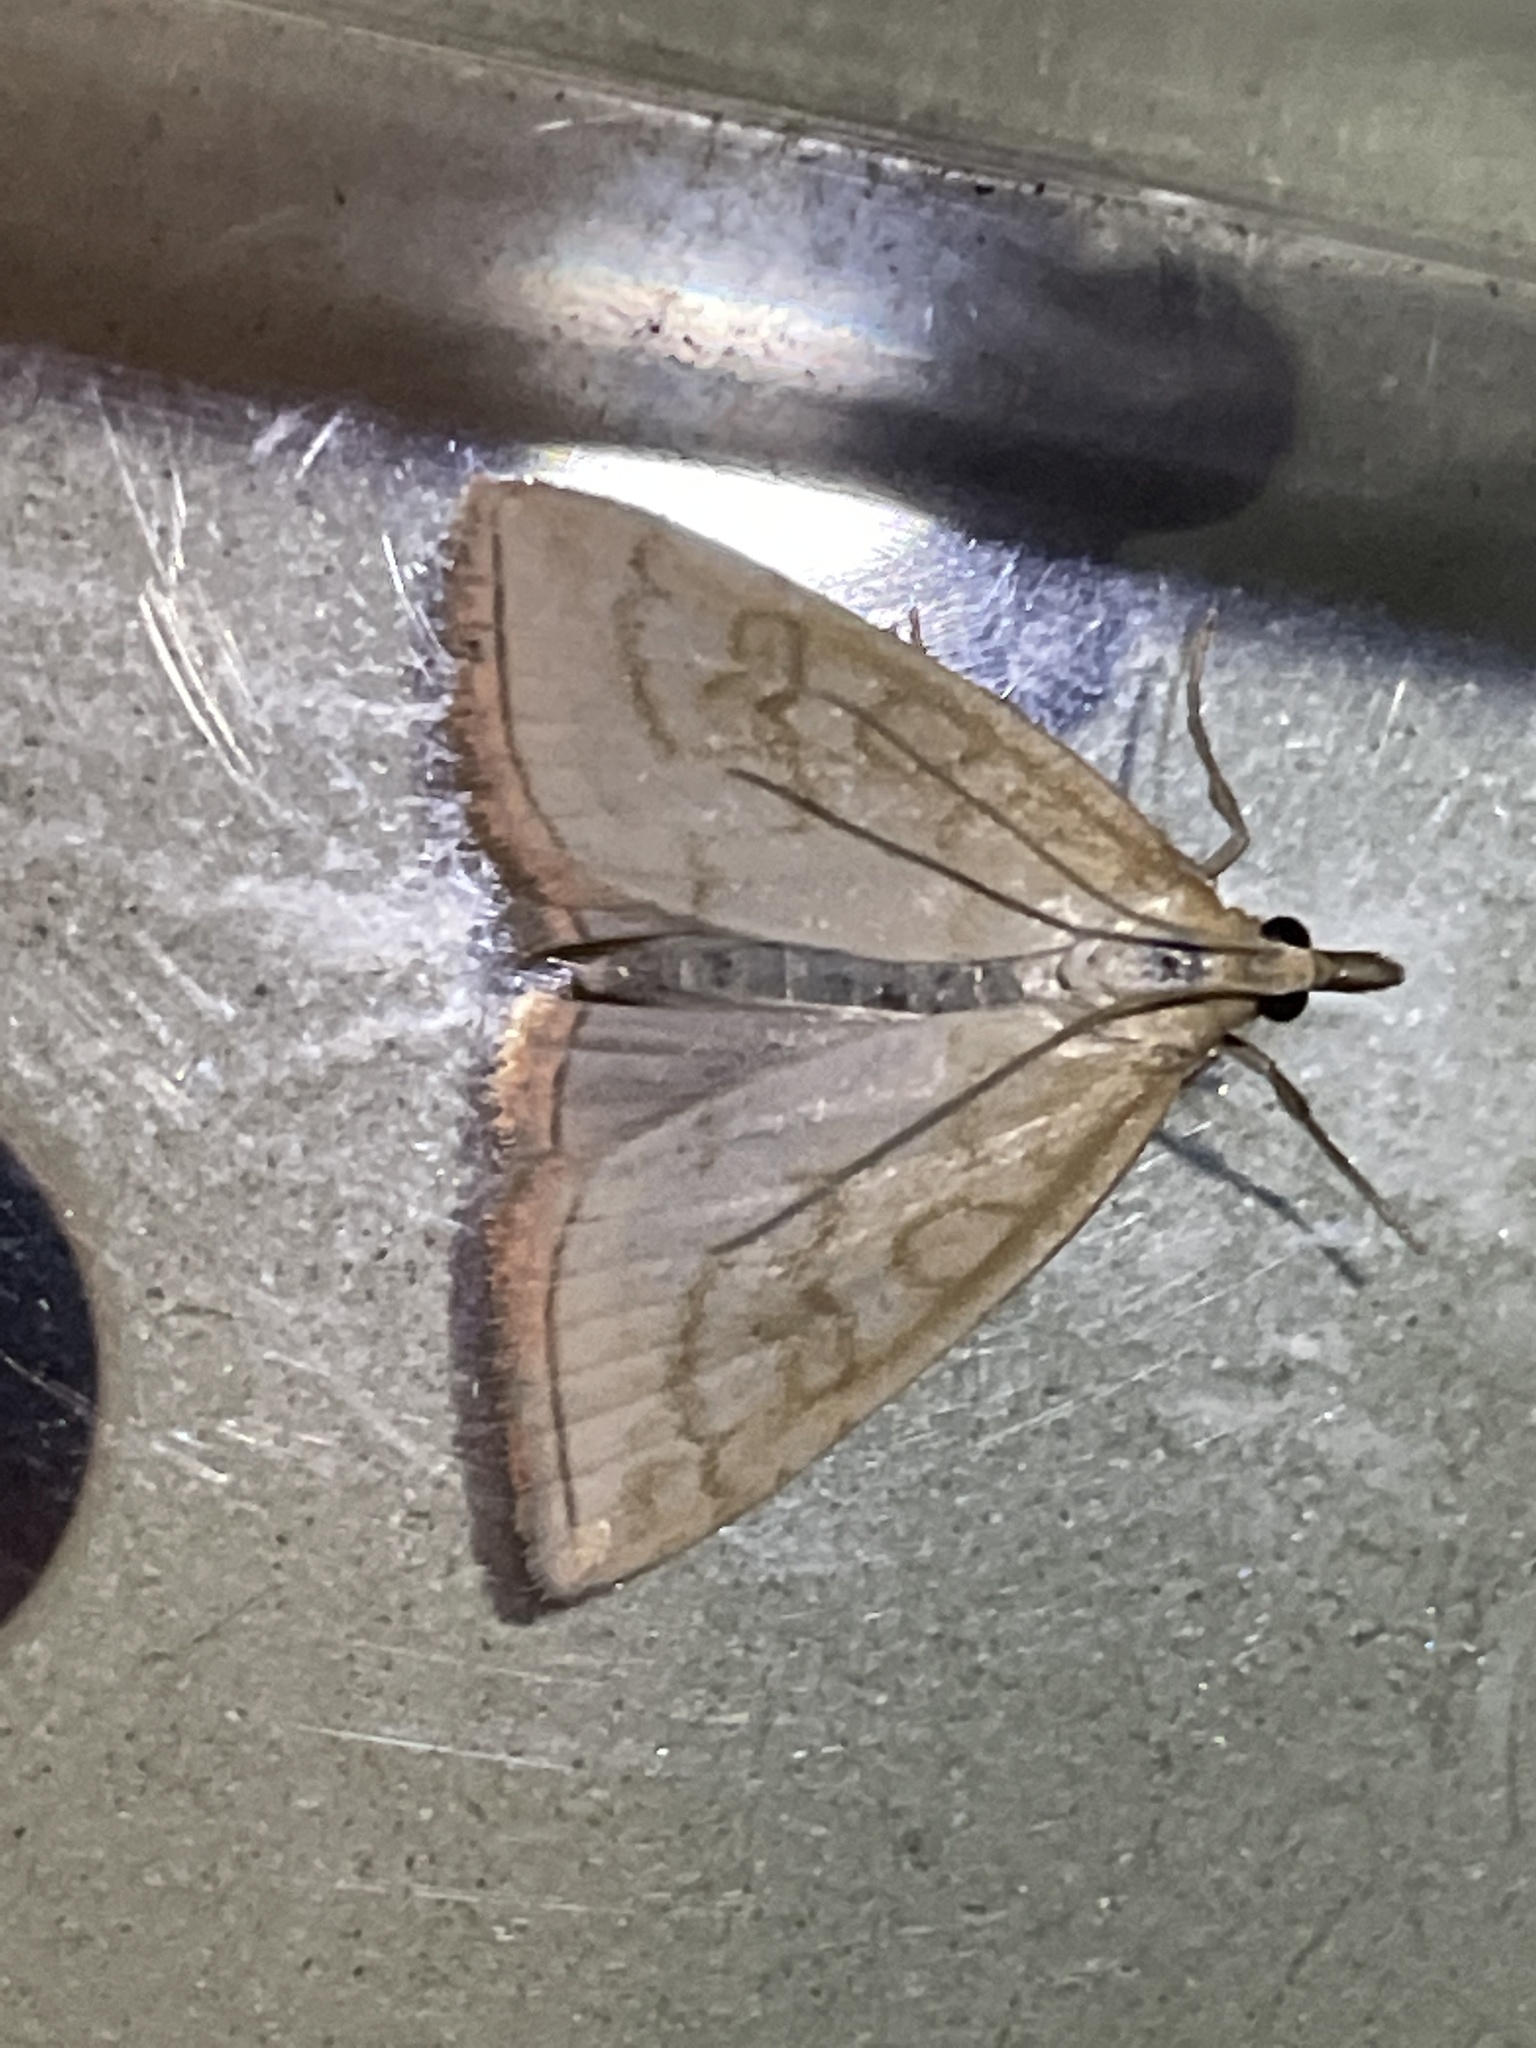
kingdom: Animalia
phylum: Arthropoda
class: Insecta
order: Lepidoptera
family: Crambidae
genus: Udea
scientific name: Udea lutealis
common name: Pale straw pearl
